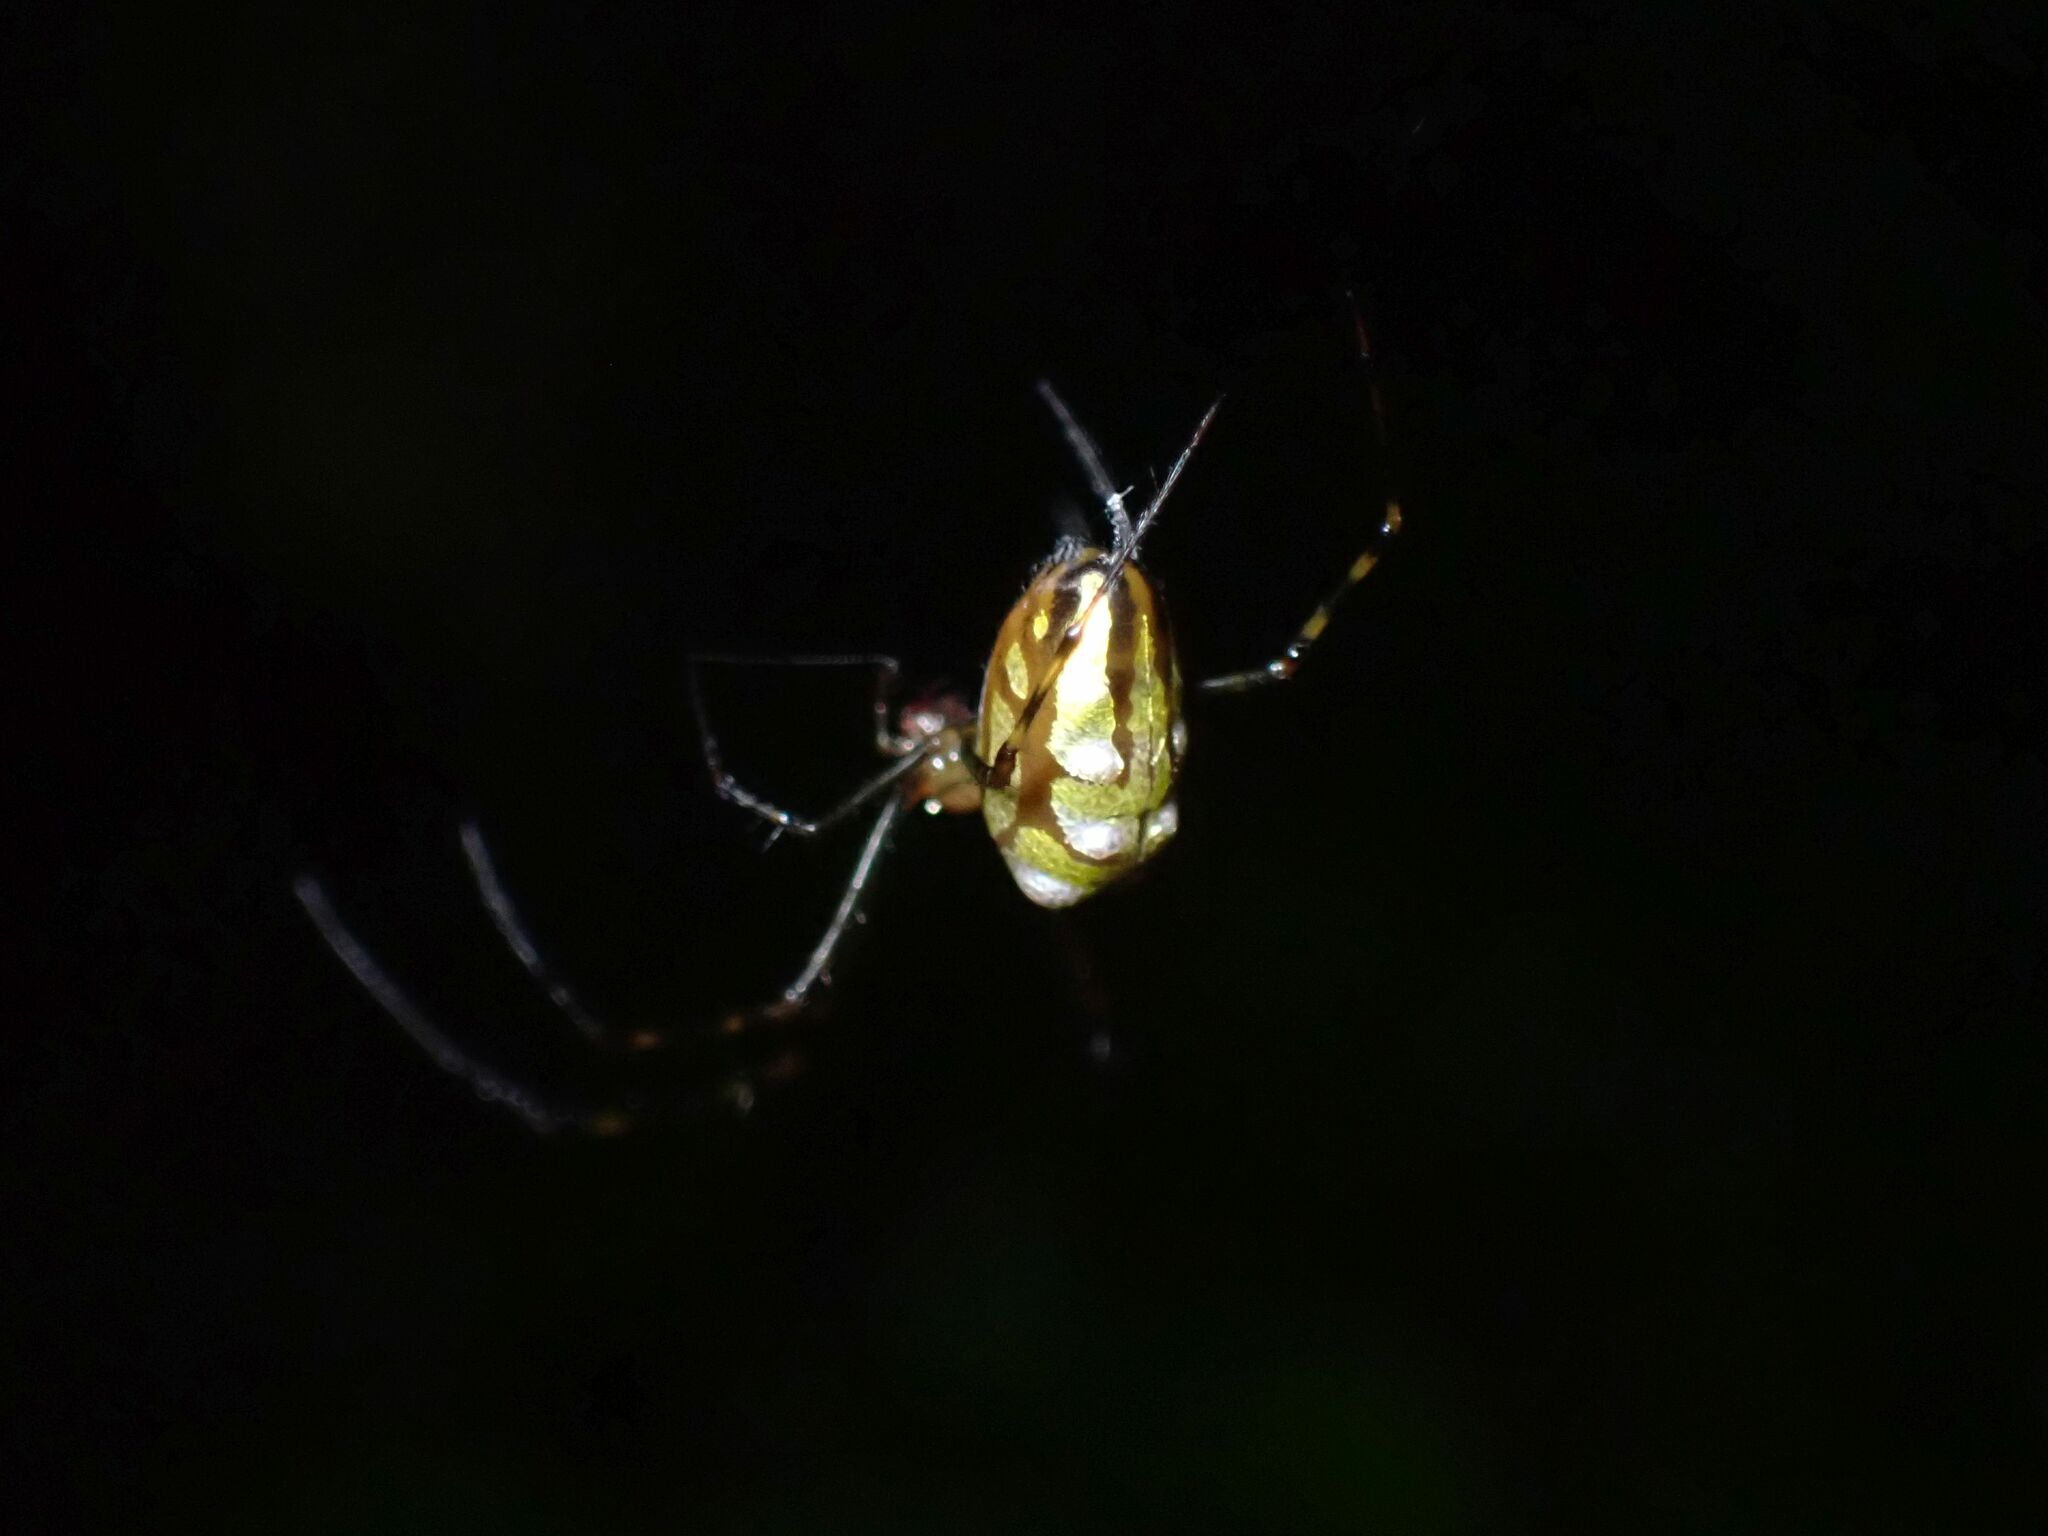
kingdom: Animalia
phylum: Arthropoda
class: Arachnida
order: Araneae
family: Tetragnathidae
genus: Leucauge
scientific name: Leucauge granulata
